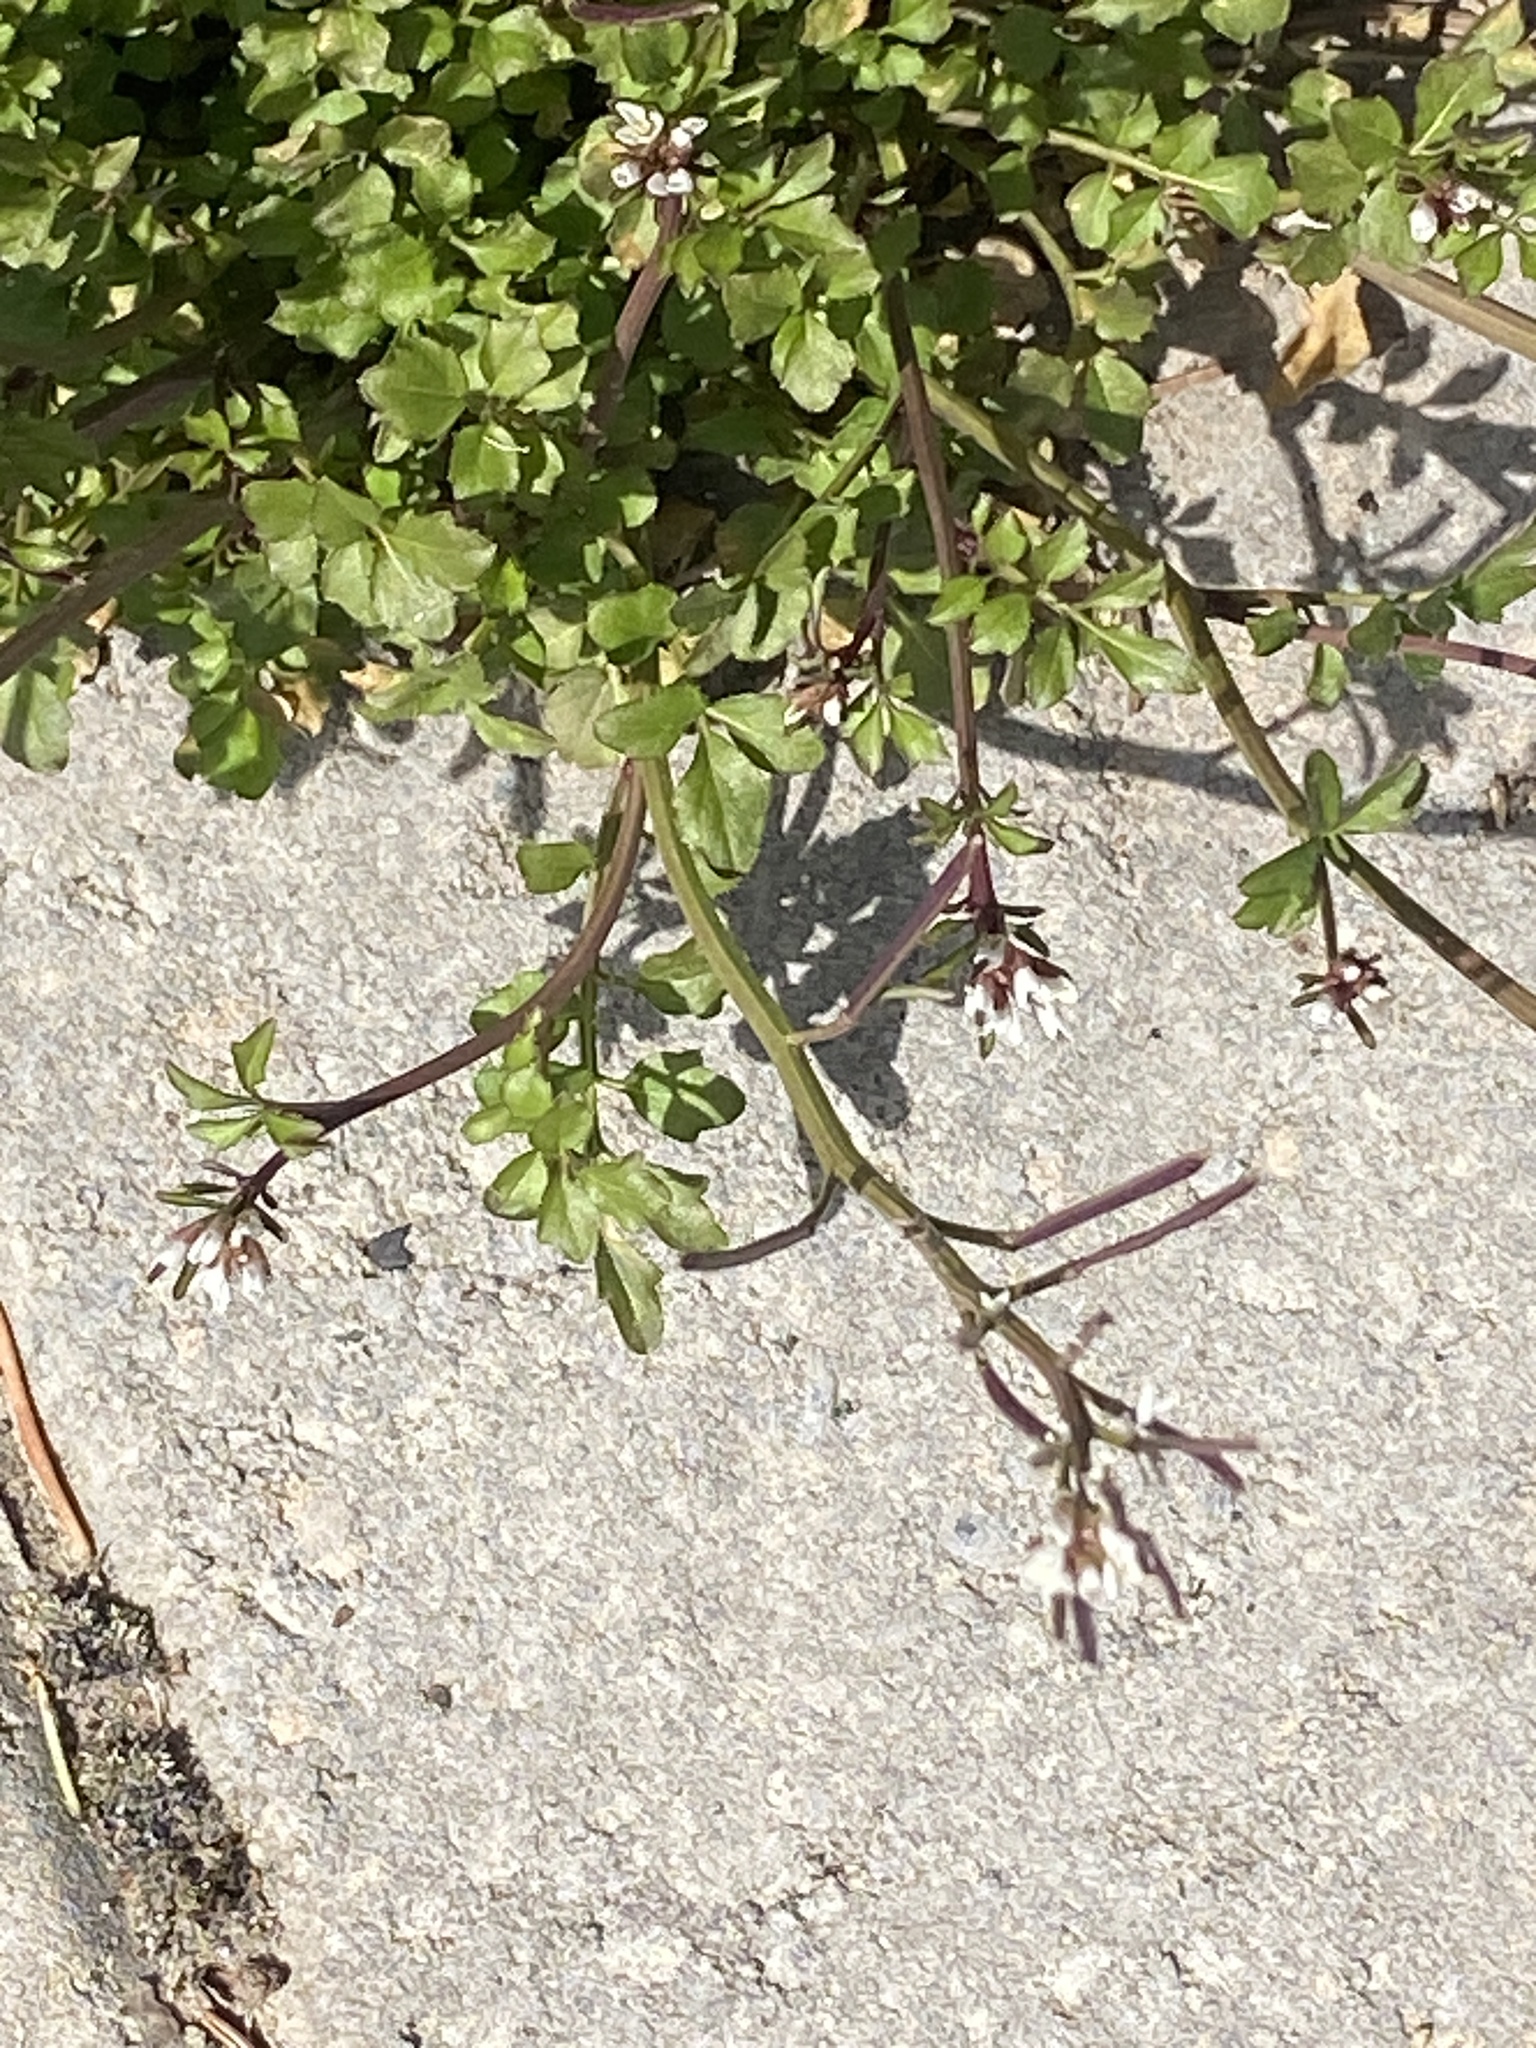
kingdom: Plantae
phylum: Tracheophyta
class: Magnoliopsida
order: Brassicales
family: Brassicaceae
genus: Cardamine
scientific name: Cardamine hirsuta
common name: Hairy bittercress
